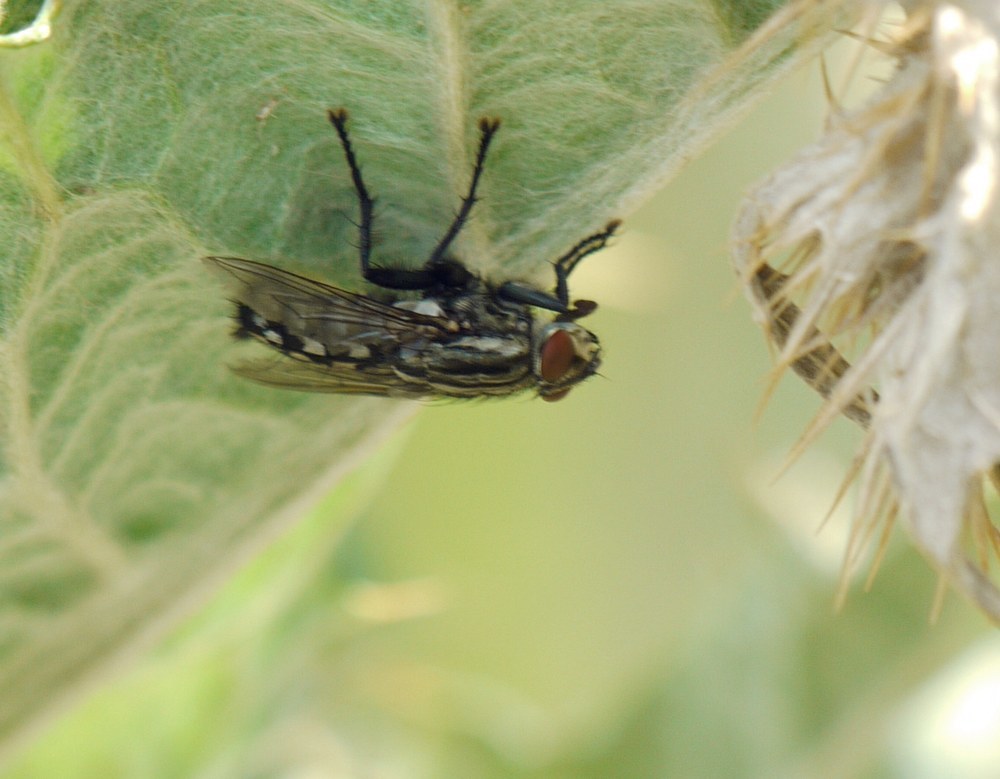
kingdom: Animalia
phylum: Arthropoda
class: Insecta
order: Diptera
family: Sarcophagidae
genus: Sarcophaga
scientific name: Sarcophaga
